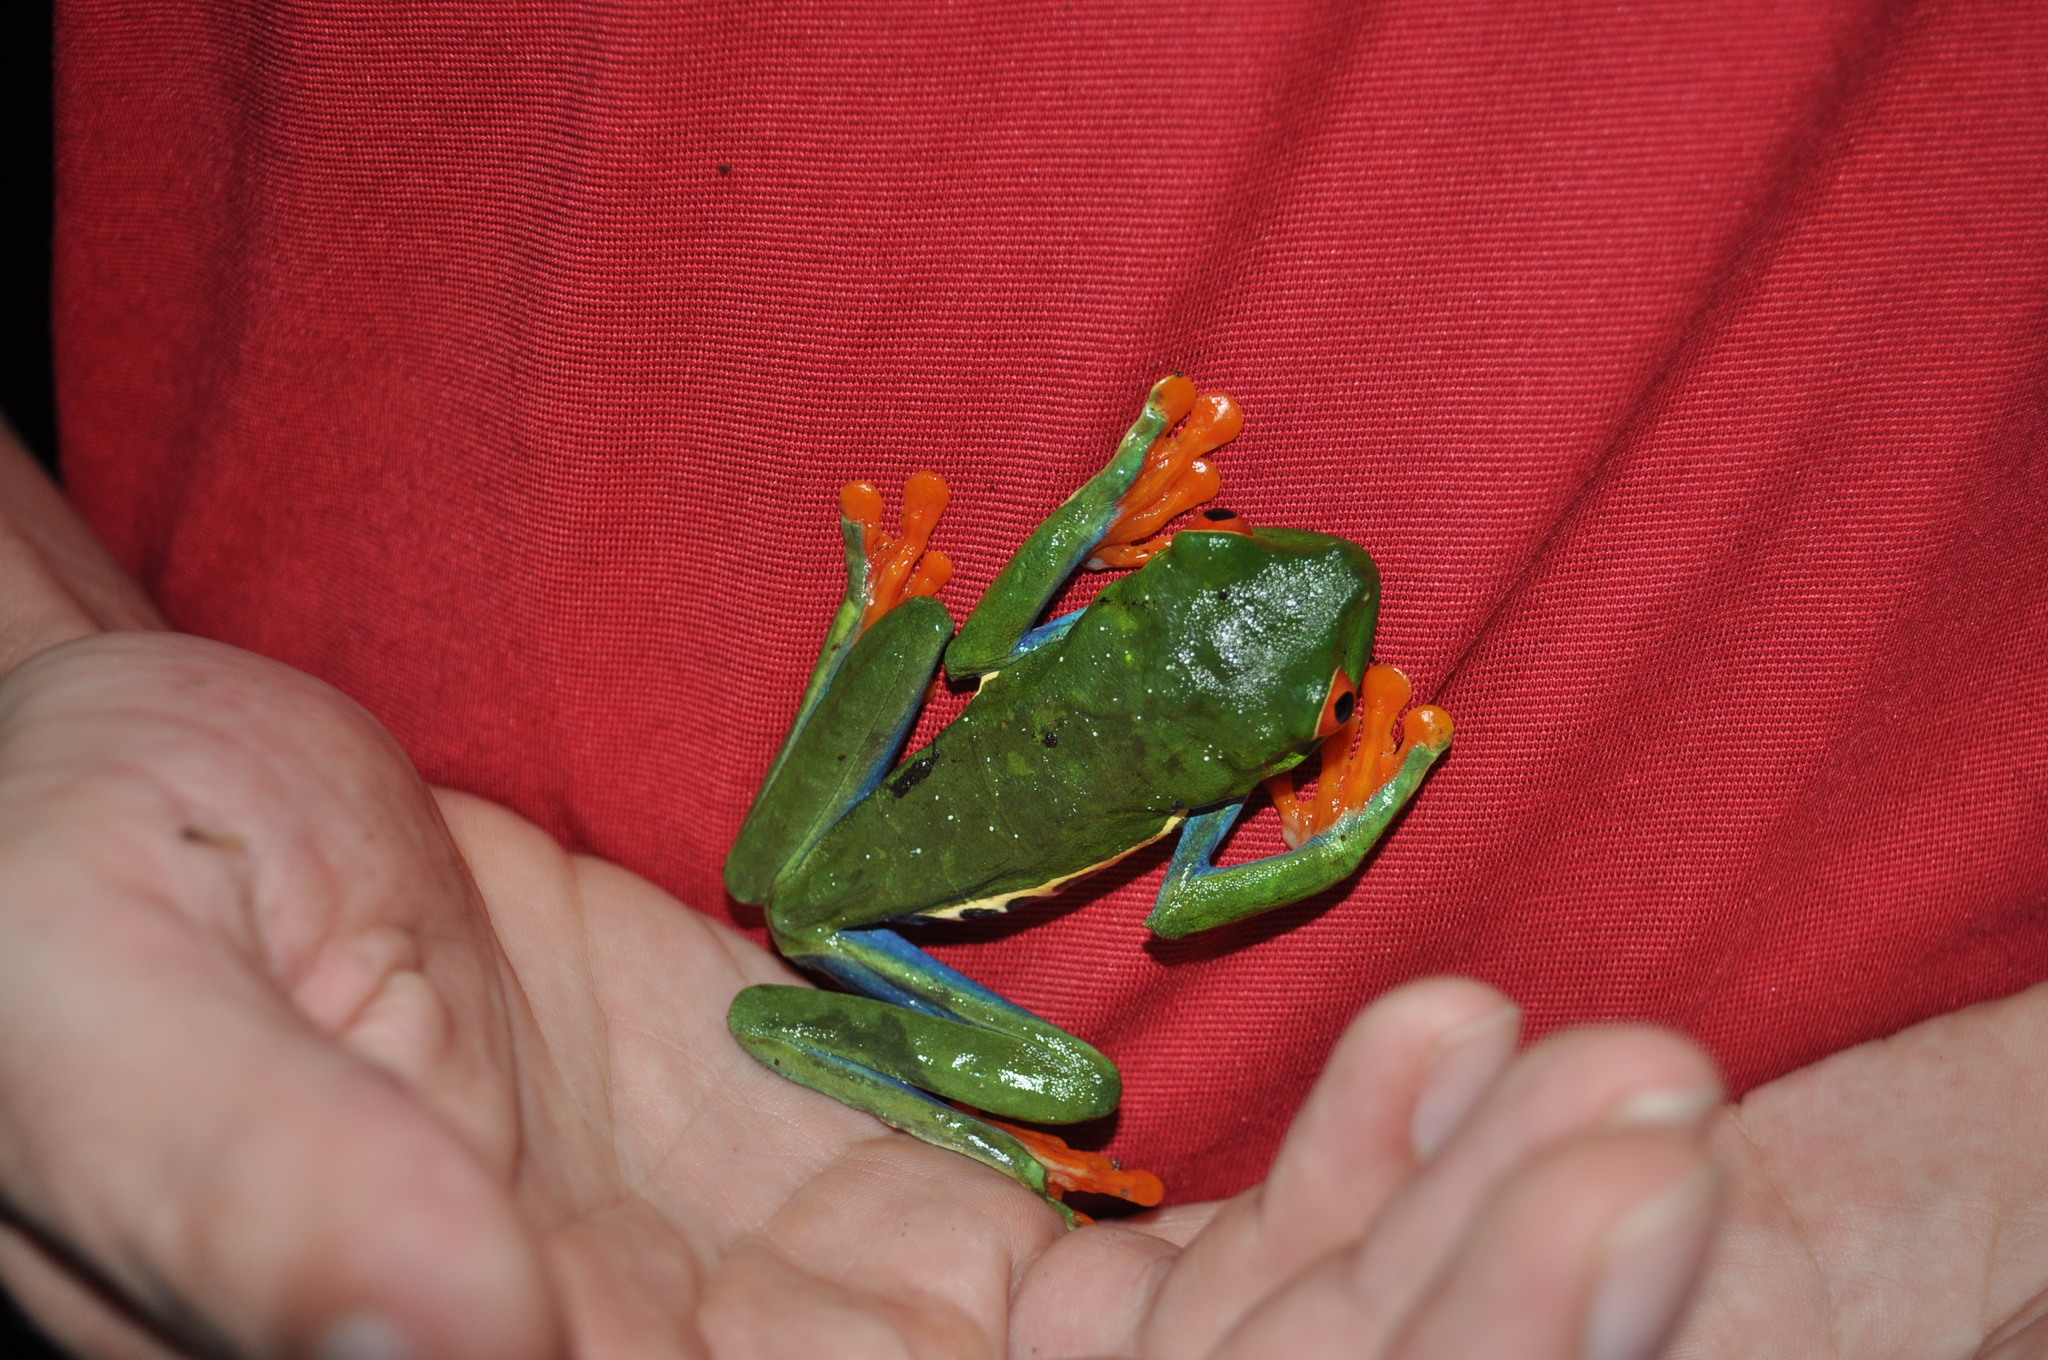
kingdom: Animalia
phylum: Chordata
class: Amphibia
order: Anura
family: Phyllomedusidae
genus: Agalychnis
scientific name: Agalychnis callidryas
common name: Red-eyed treefrog
